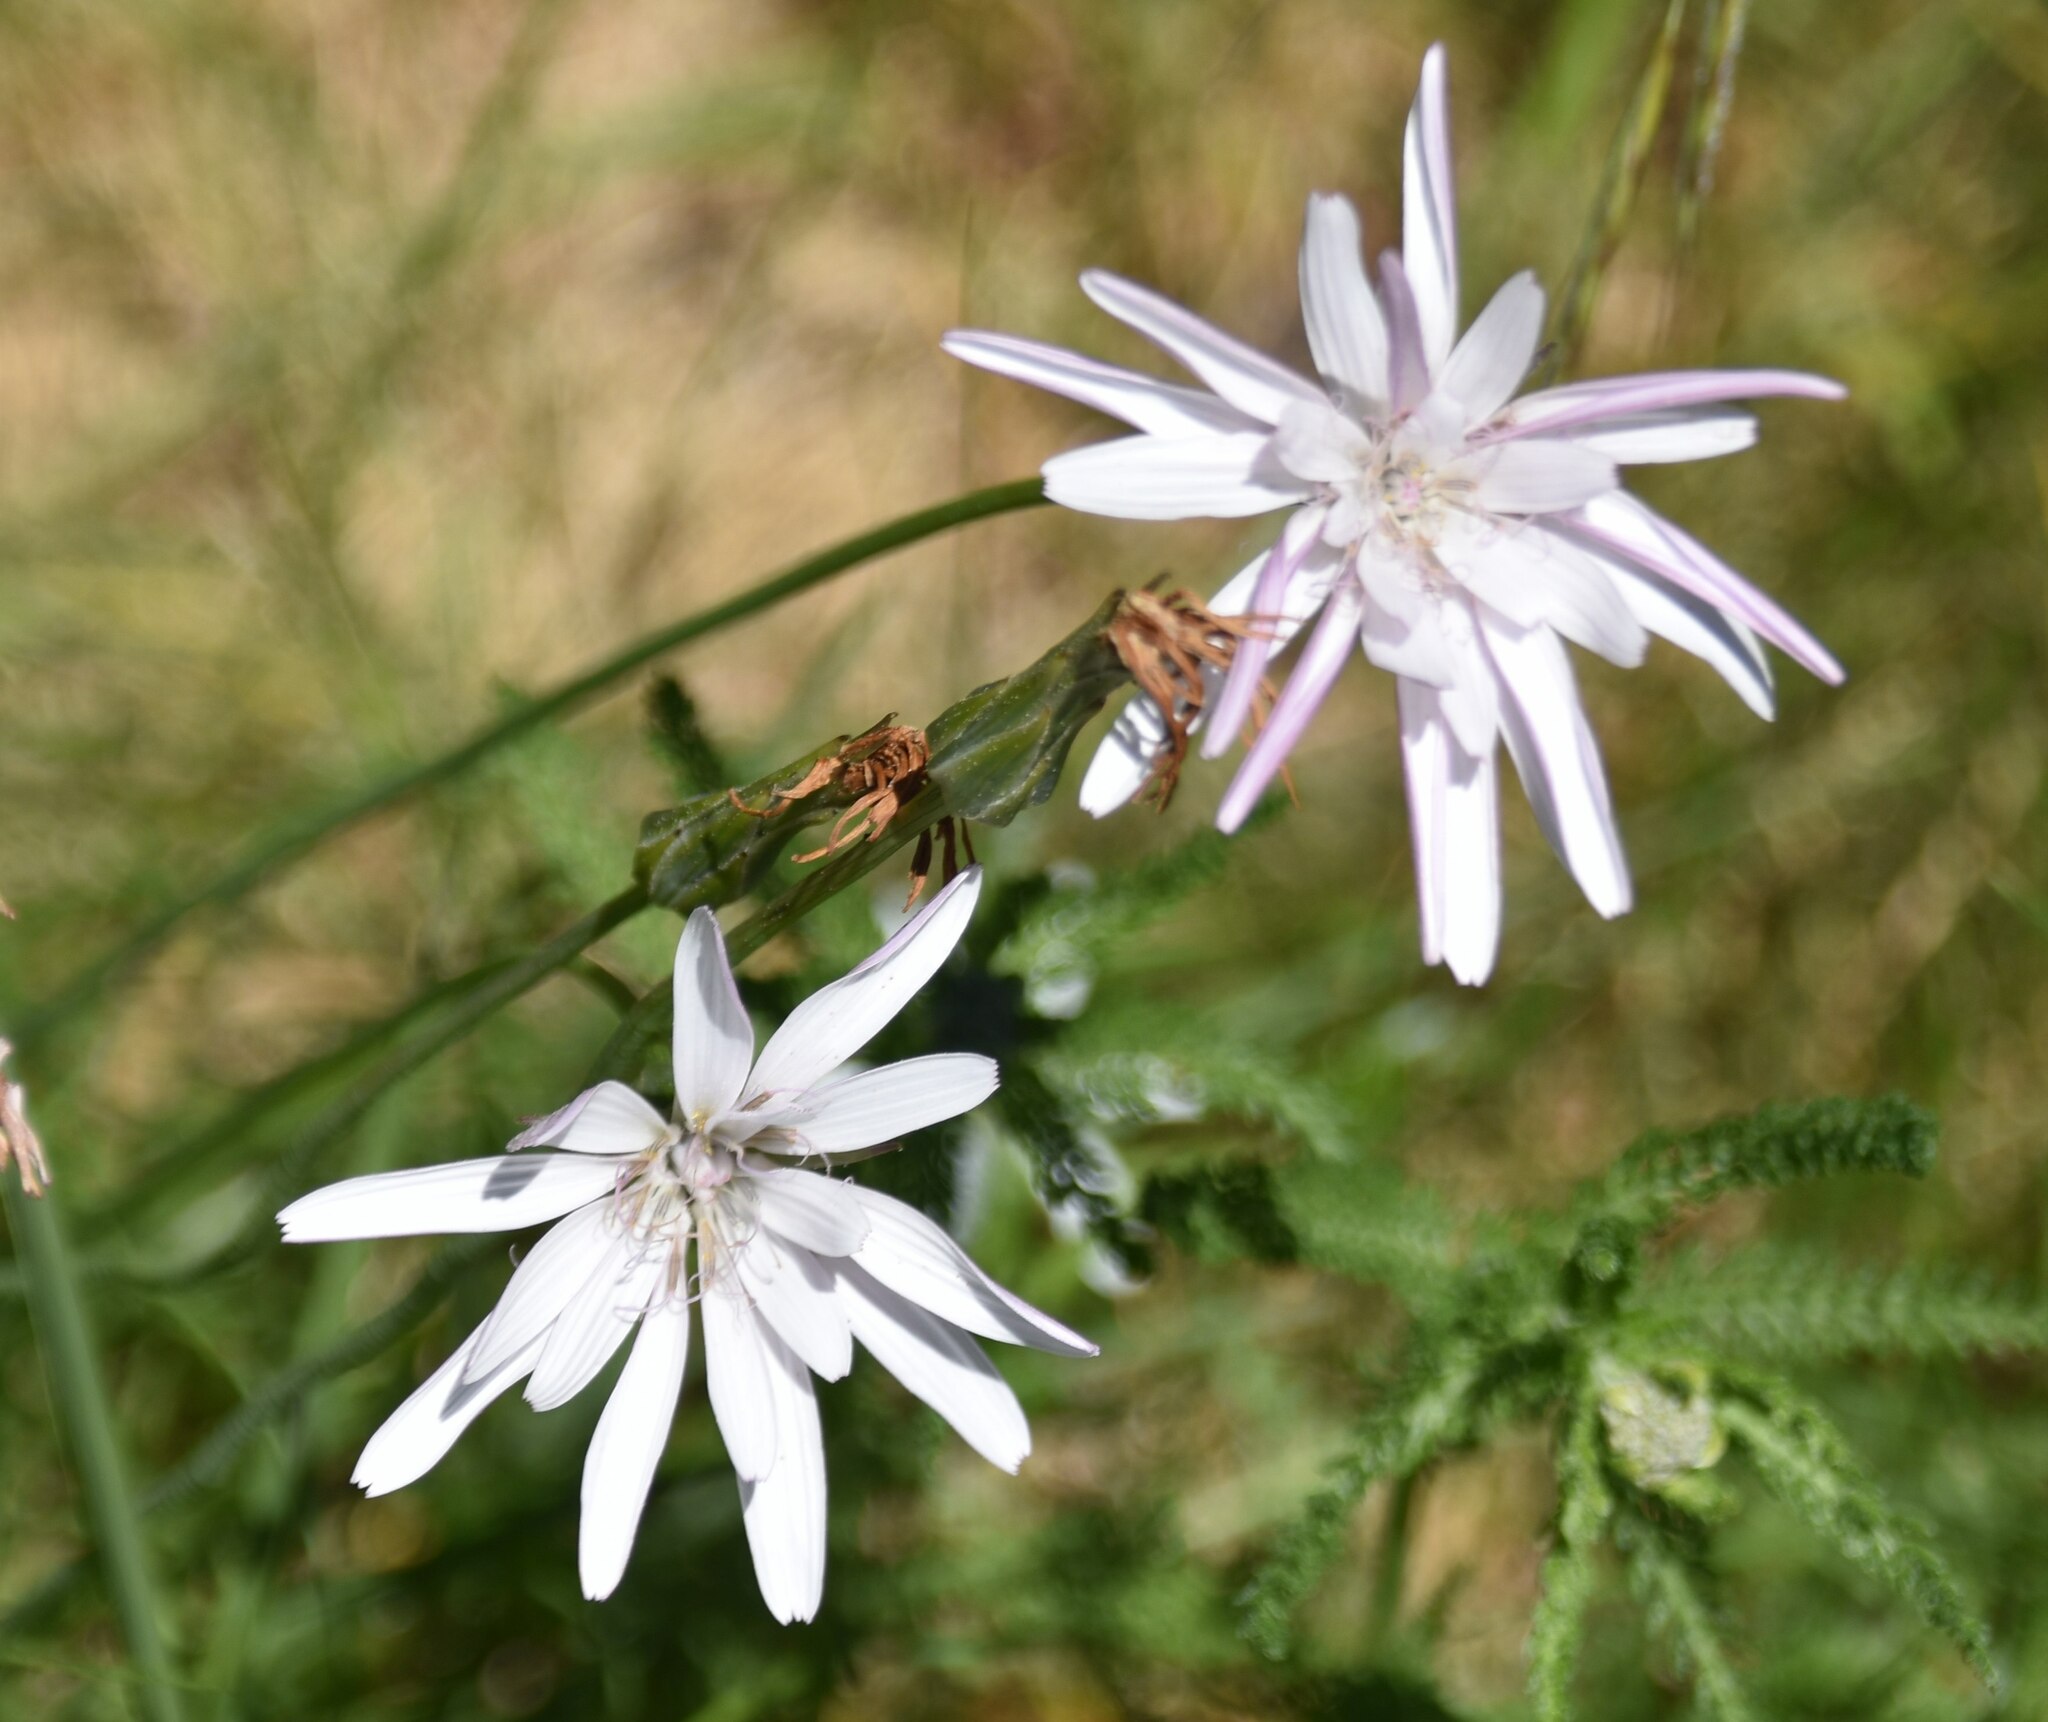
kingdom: Plantae
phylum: Tracheophyta
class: Magnoliopsida
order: Asterales
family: Asteraceae
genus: Scorzonera
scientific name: Scorzonera rosea
